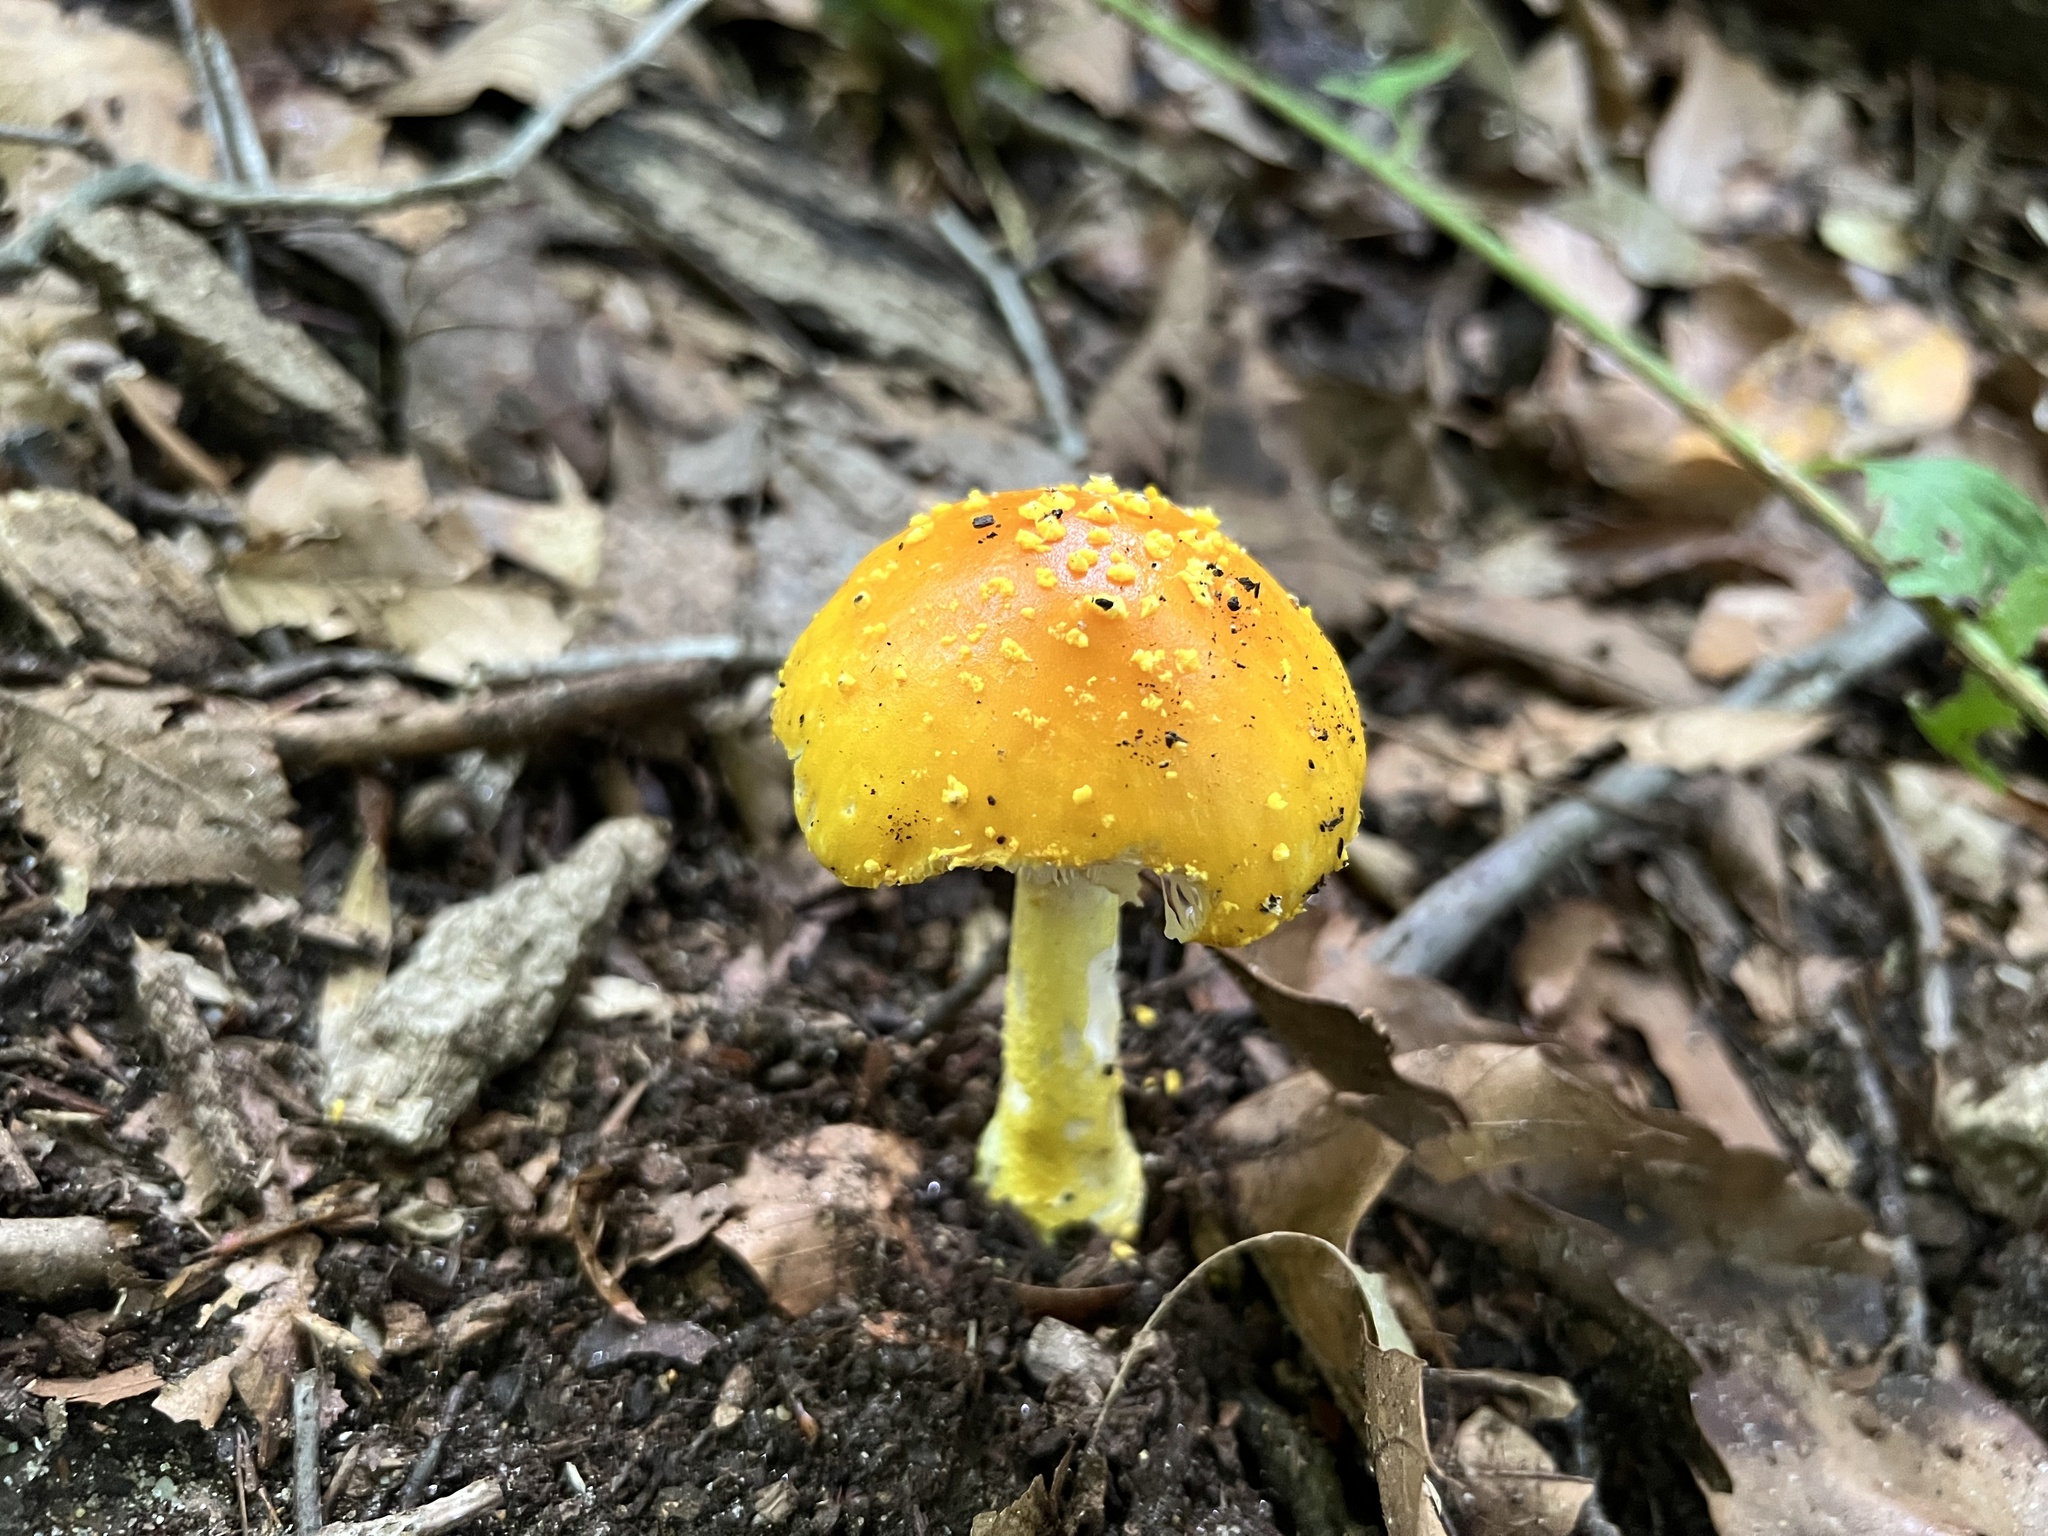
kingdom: Fungi
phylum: Basidiomycota
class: Agaricomycetes
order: Agaricales
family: Amanitaceae
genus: Amanita
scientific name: Amanita flavoconia
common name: Yellow patches
